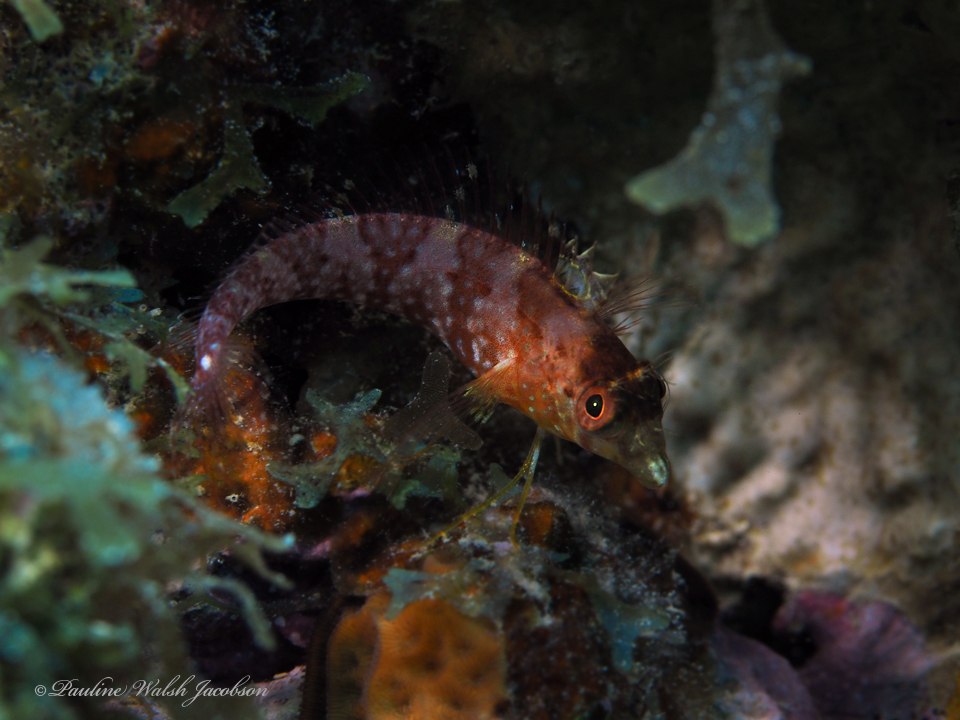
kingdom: Animalia
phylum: Chordata
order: Perciformes
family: Labrisomidae
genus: Malacoctenus
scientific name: Malacoctenus boehlkei
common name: Diamond blenny
